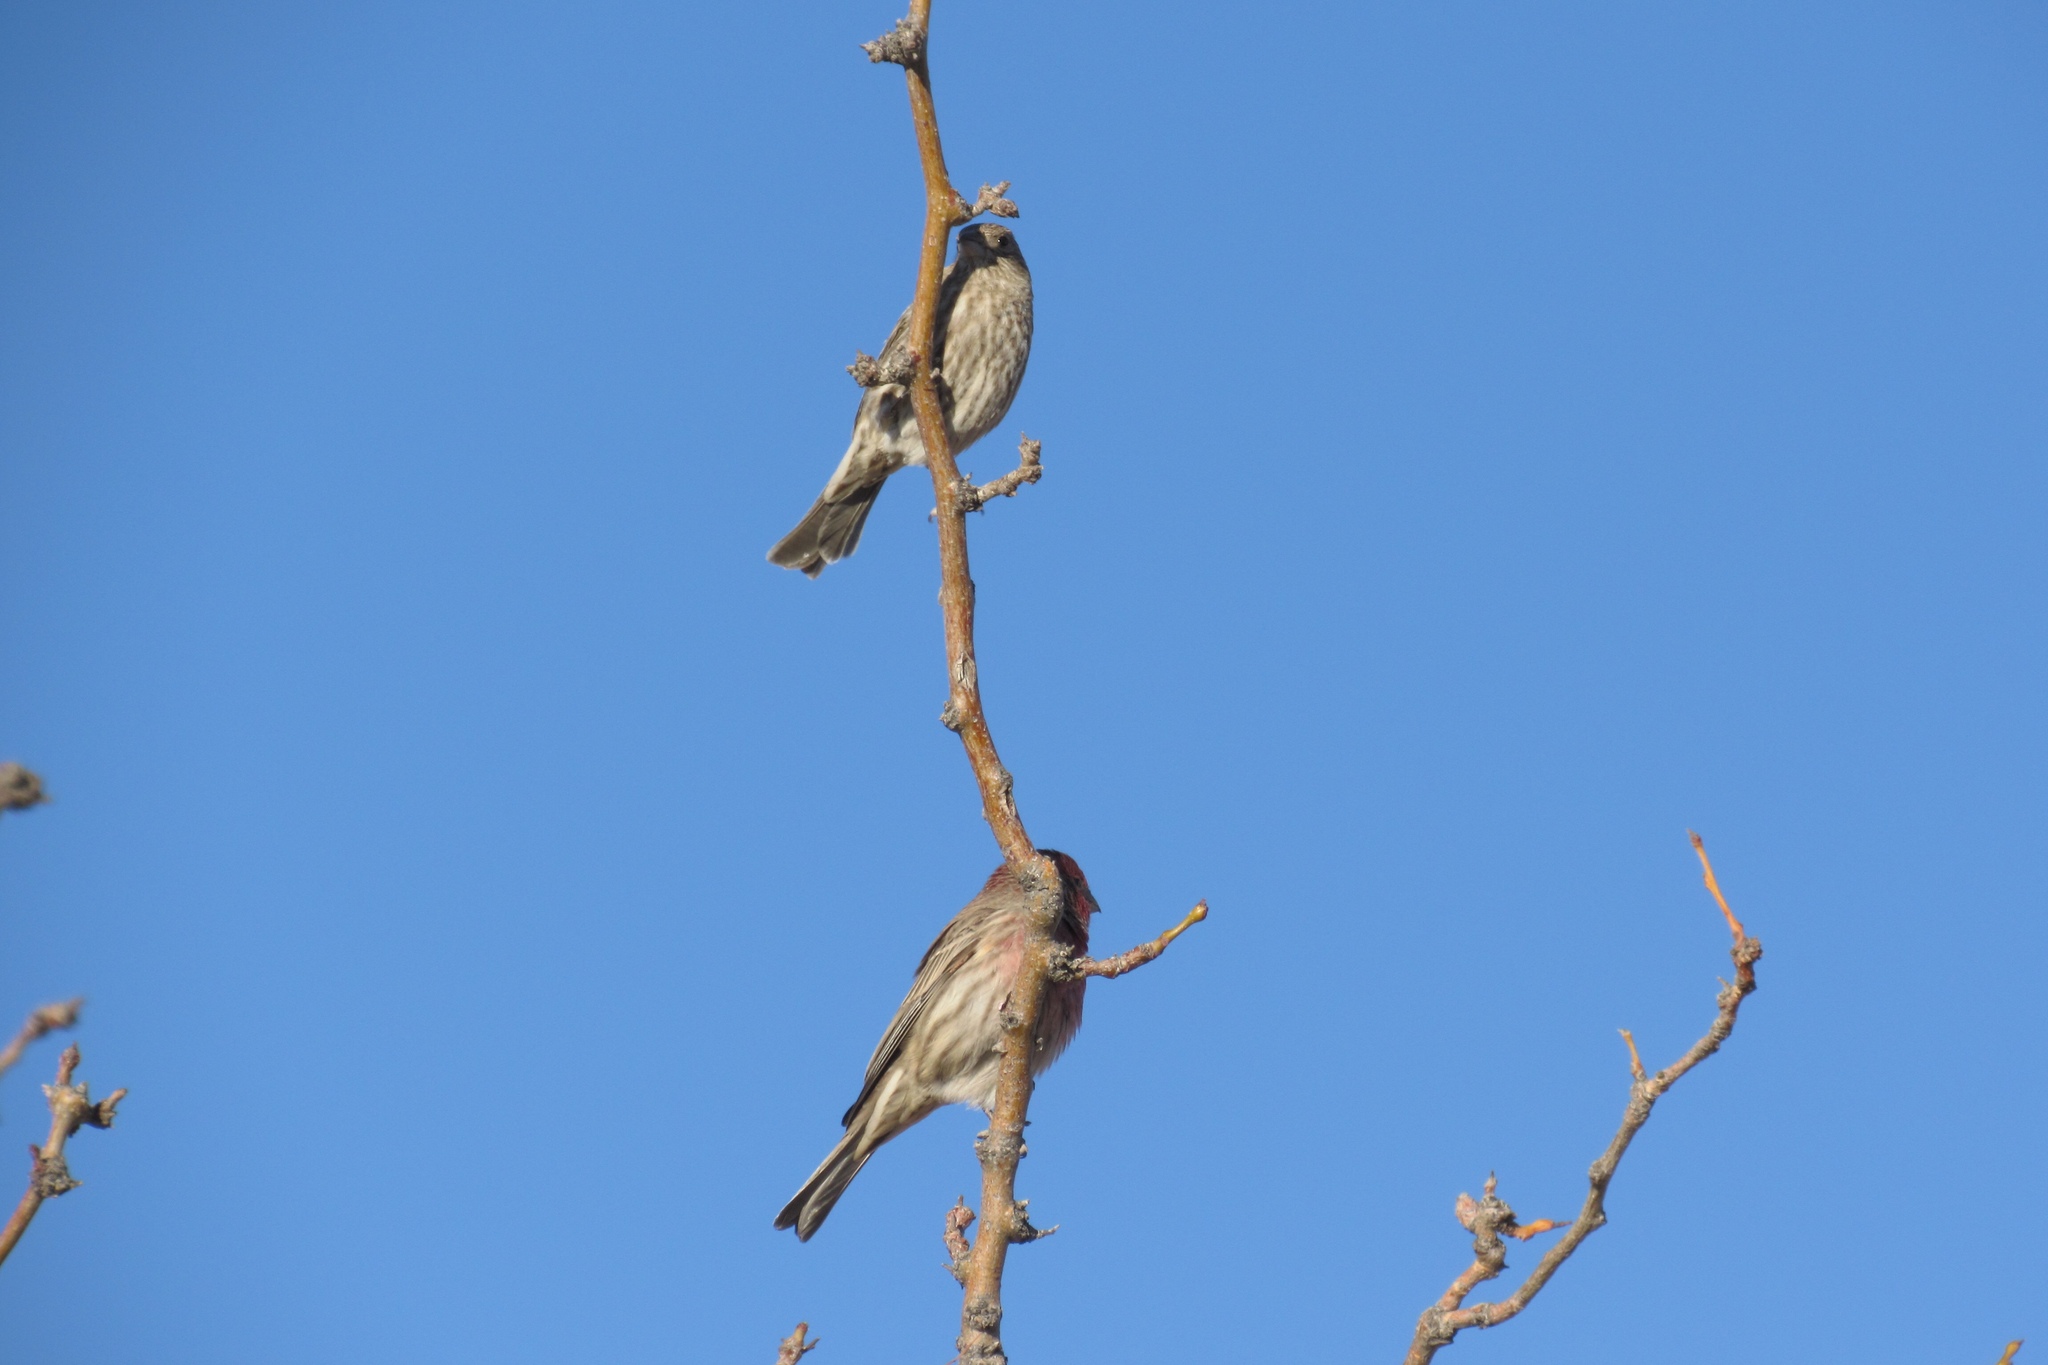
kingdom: Animalia
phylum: Chordata
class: Aves
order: Passeriformes
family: Fringillidae
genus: Haemorhous
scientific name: Haemorhous mexicanus
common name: House finch
